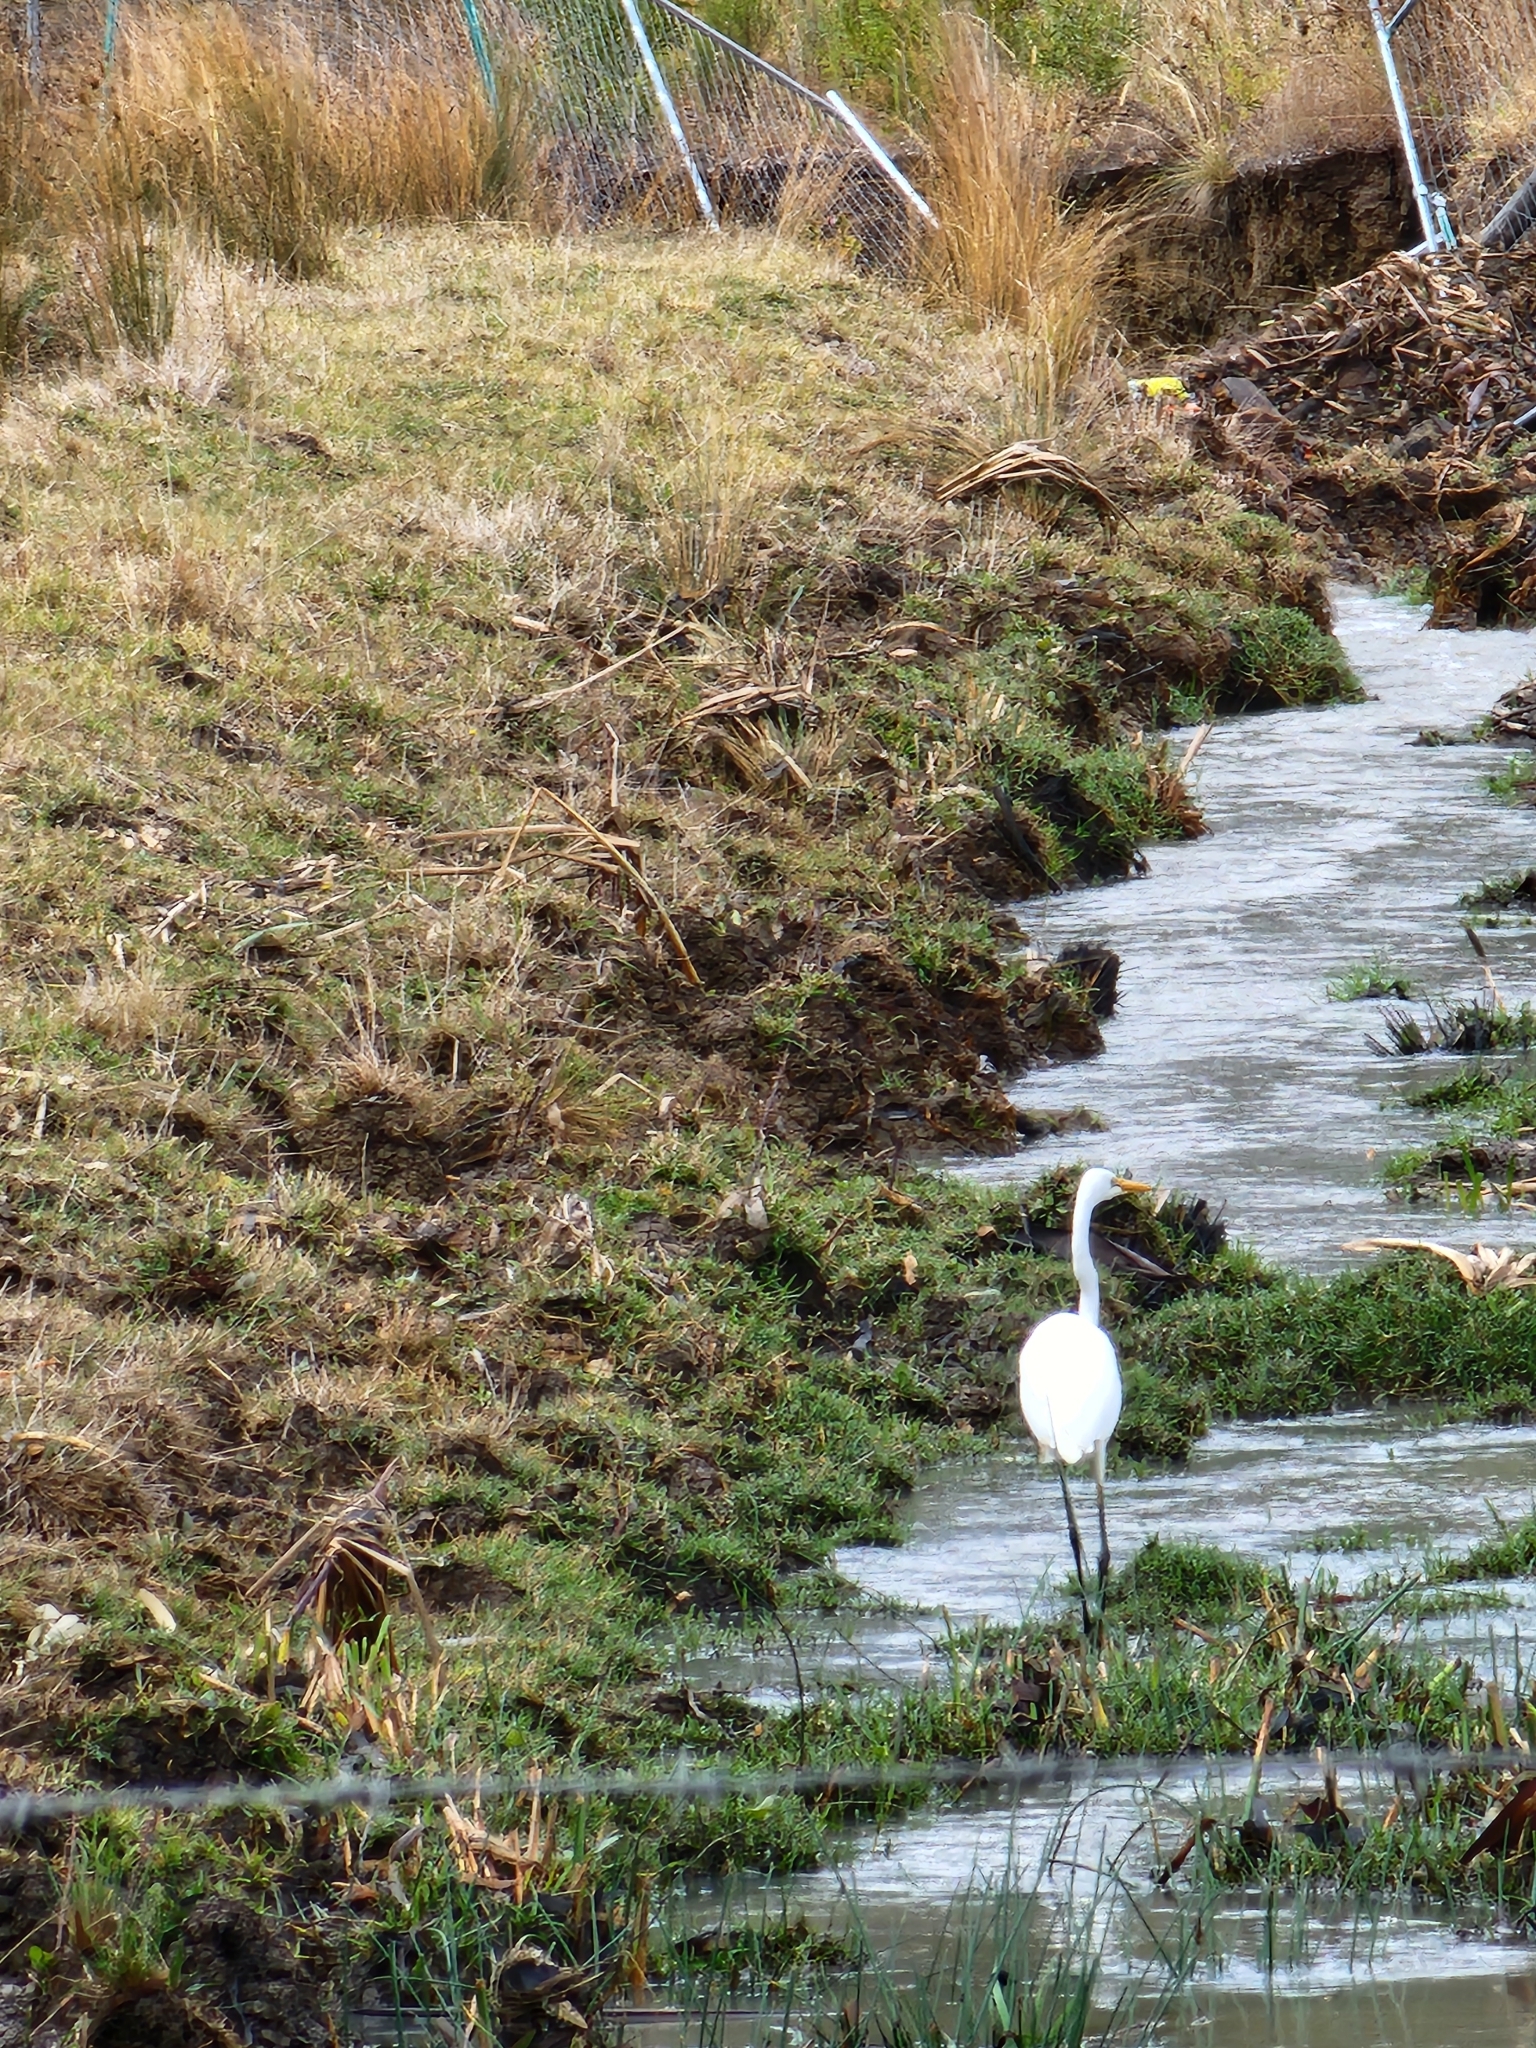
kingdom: Animalia
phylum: Chordata
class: Aves
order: Pelecaniformes
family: Ardeidae
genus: Ardea
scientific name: Ardea alba
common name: Great egret
